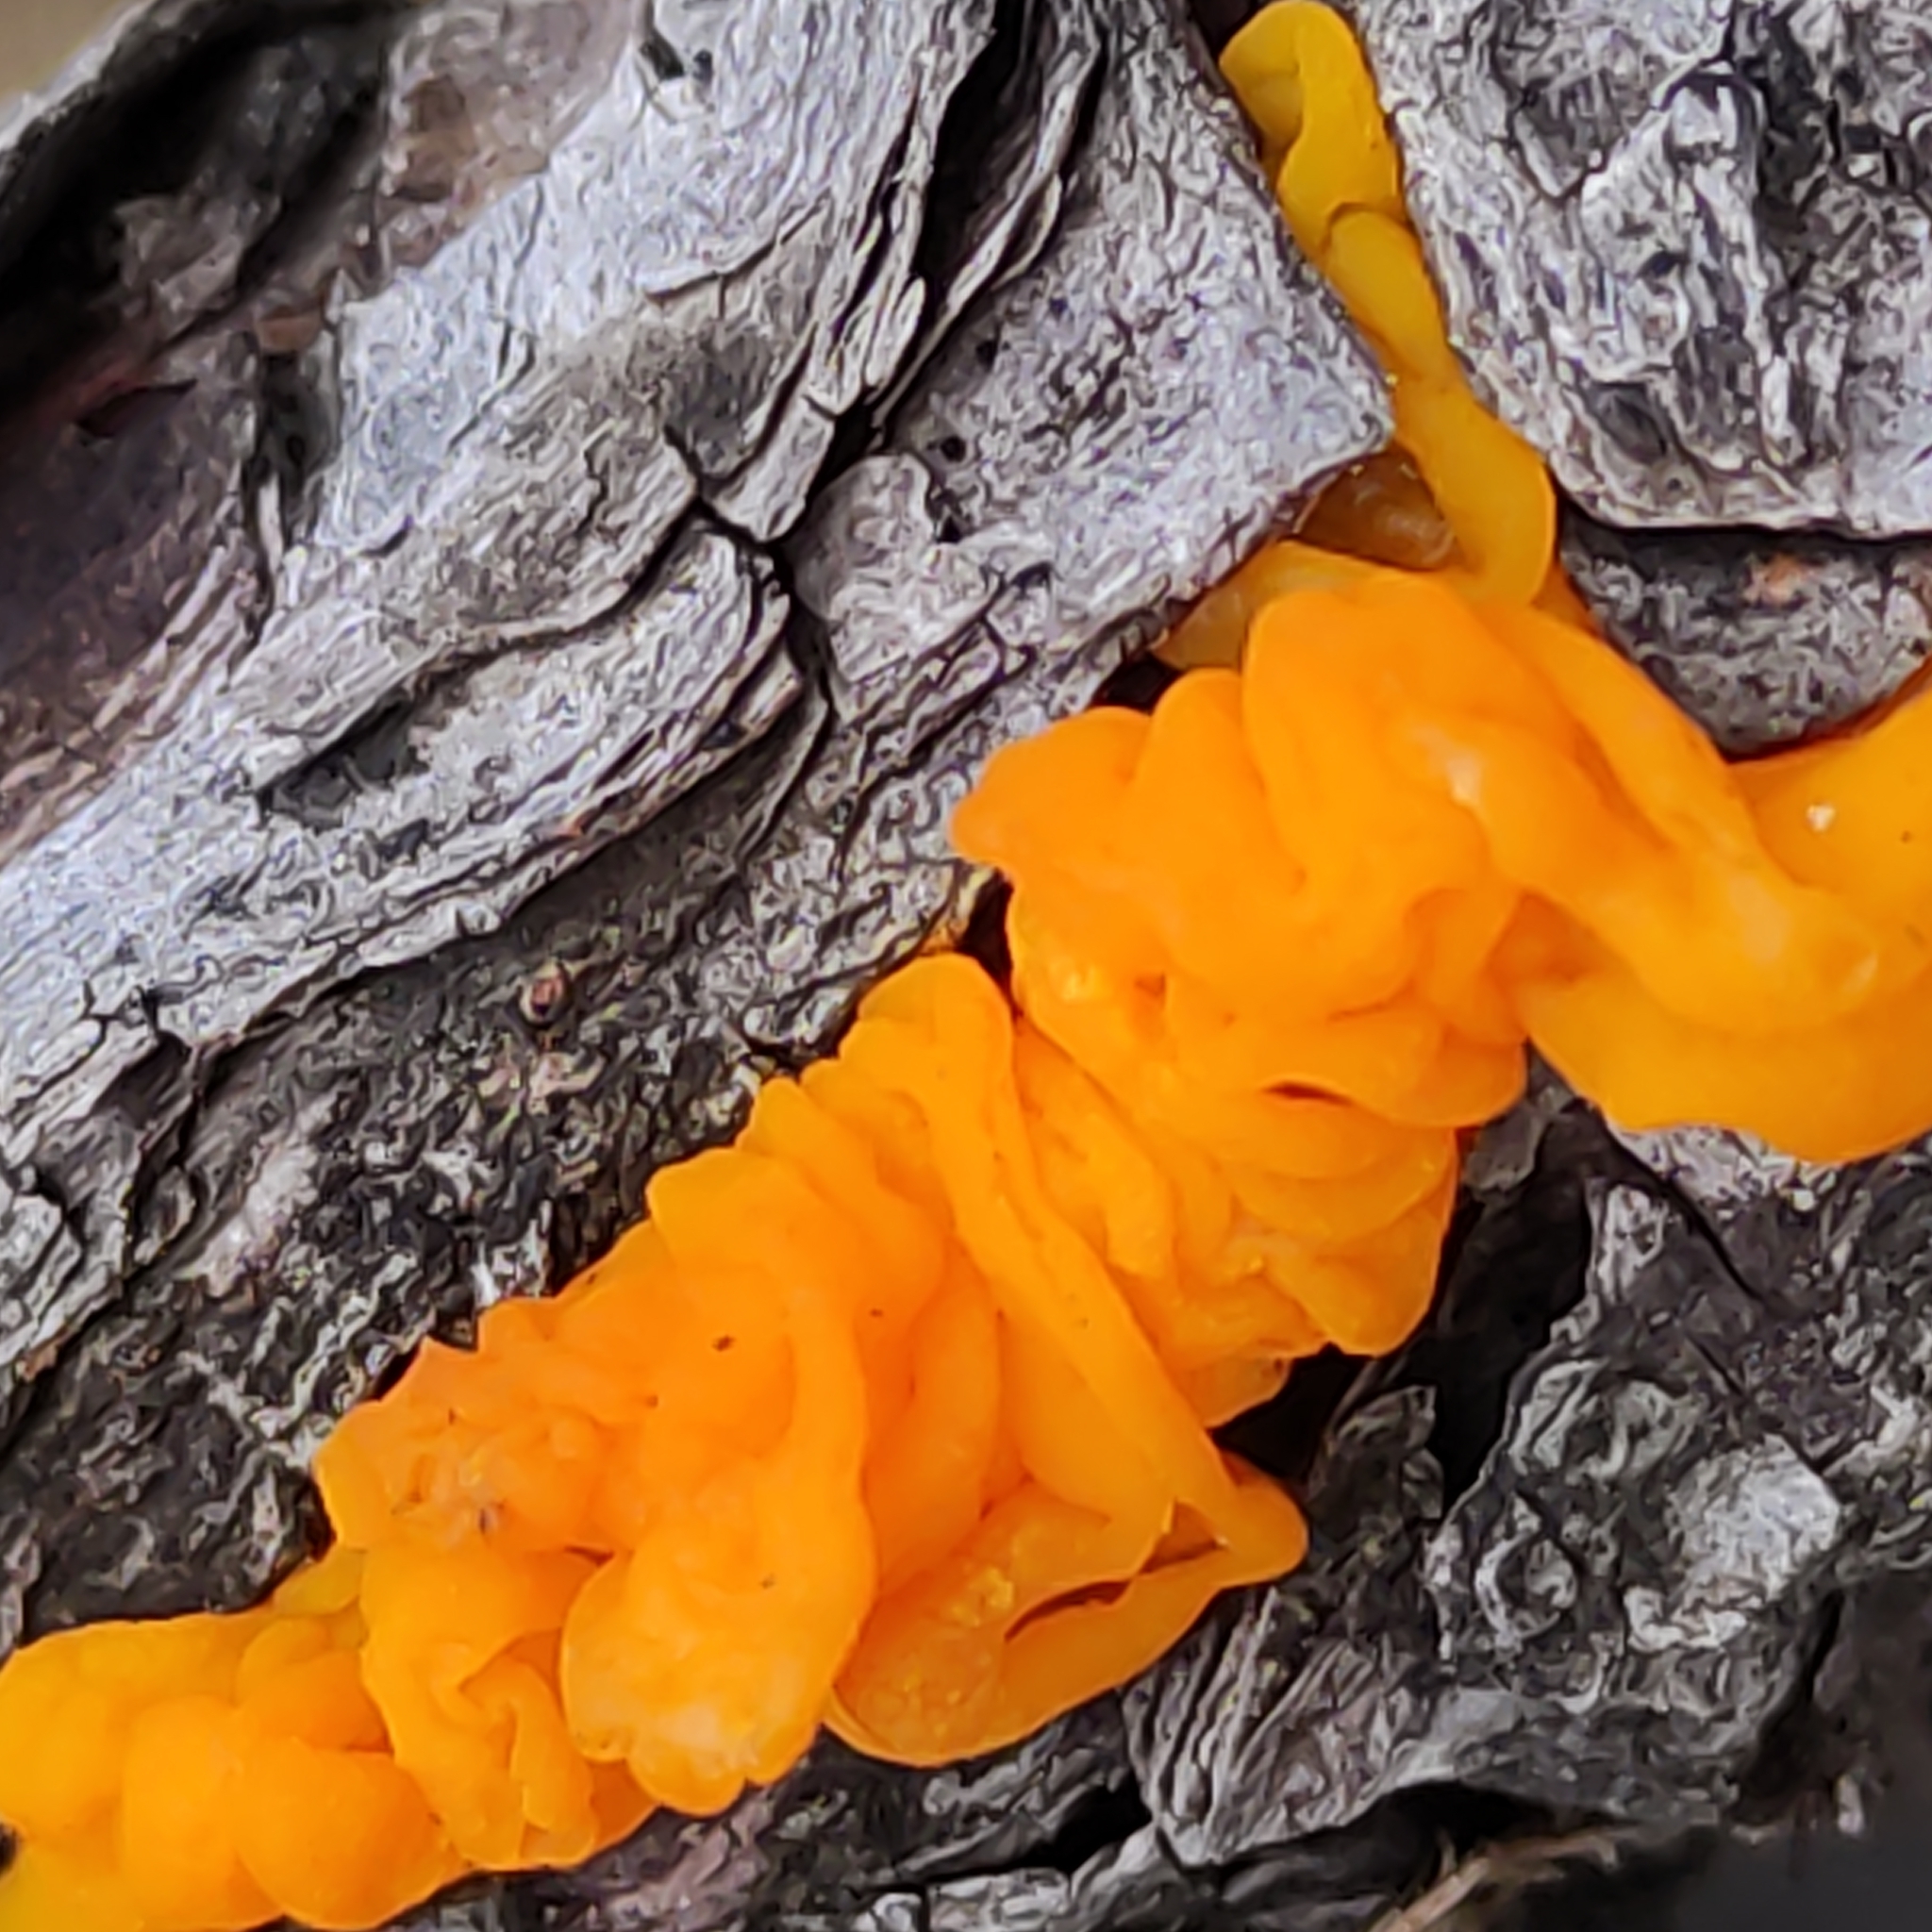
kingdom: Fungi
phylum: Basidiomycota
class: Tremellomycetes
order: Tremellales
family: Tremellaceae
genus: Tremella
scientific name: Tremella mesenterica
